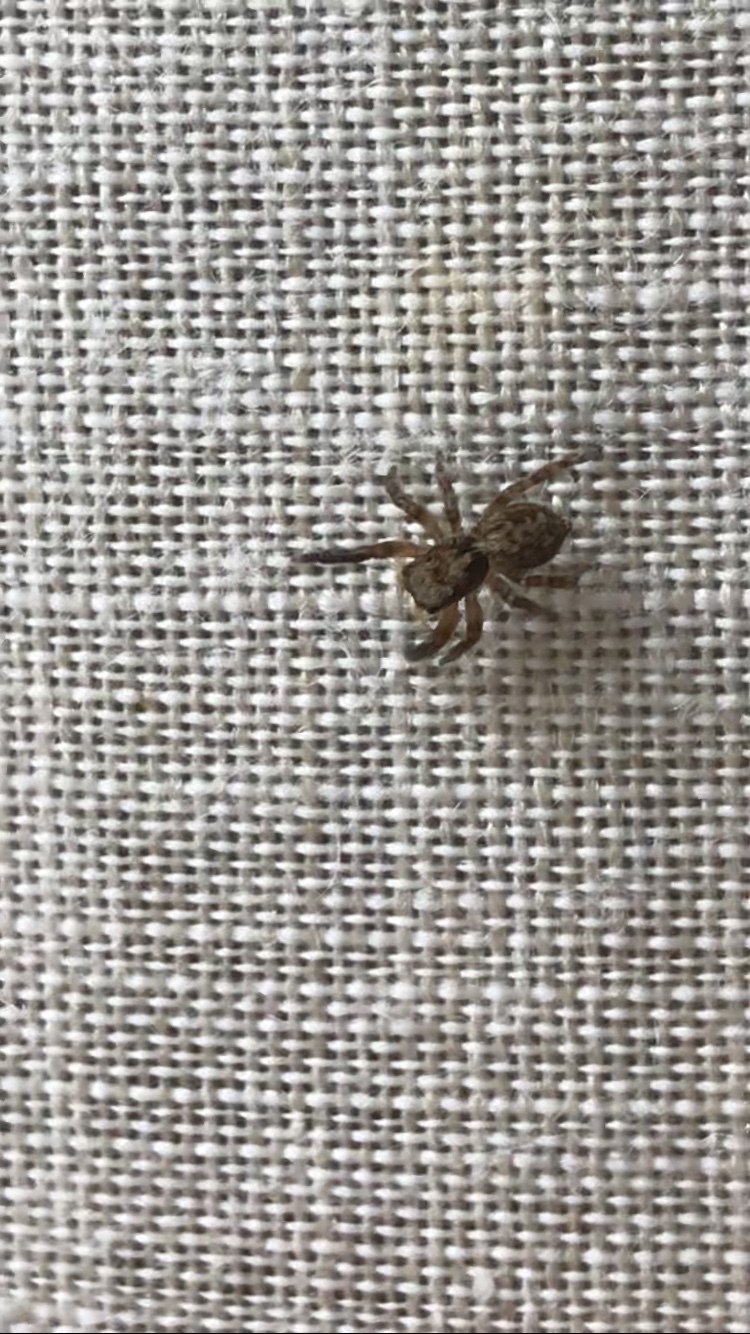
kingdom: Animalia
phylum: Arthropoda
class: Arachnida
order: Araneae
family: Salticidae
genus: Pseudeuophrys
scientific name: Pseudeuophrys vafra
